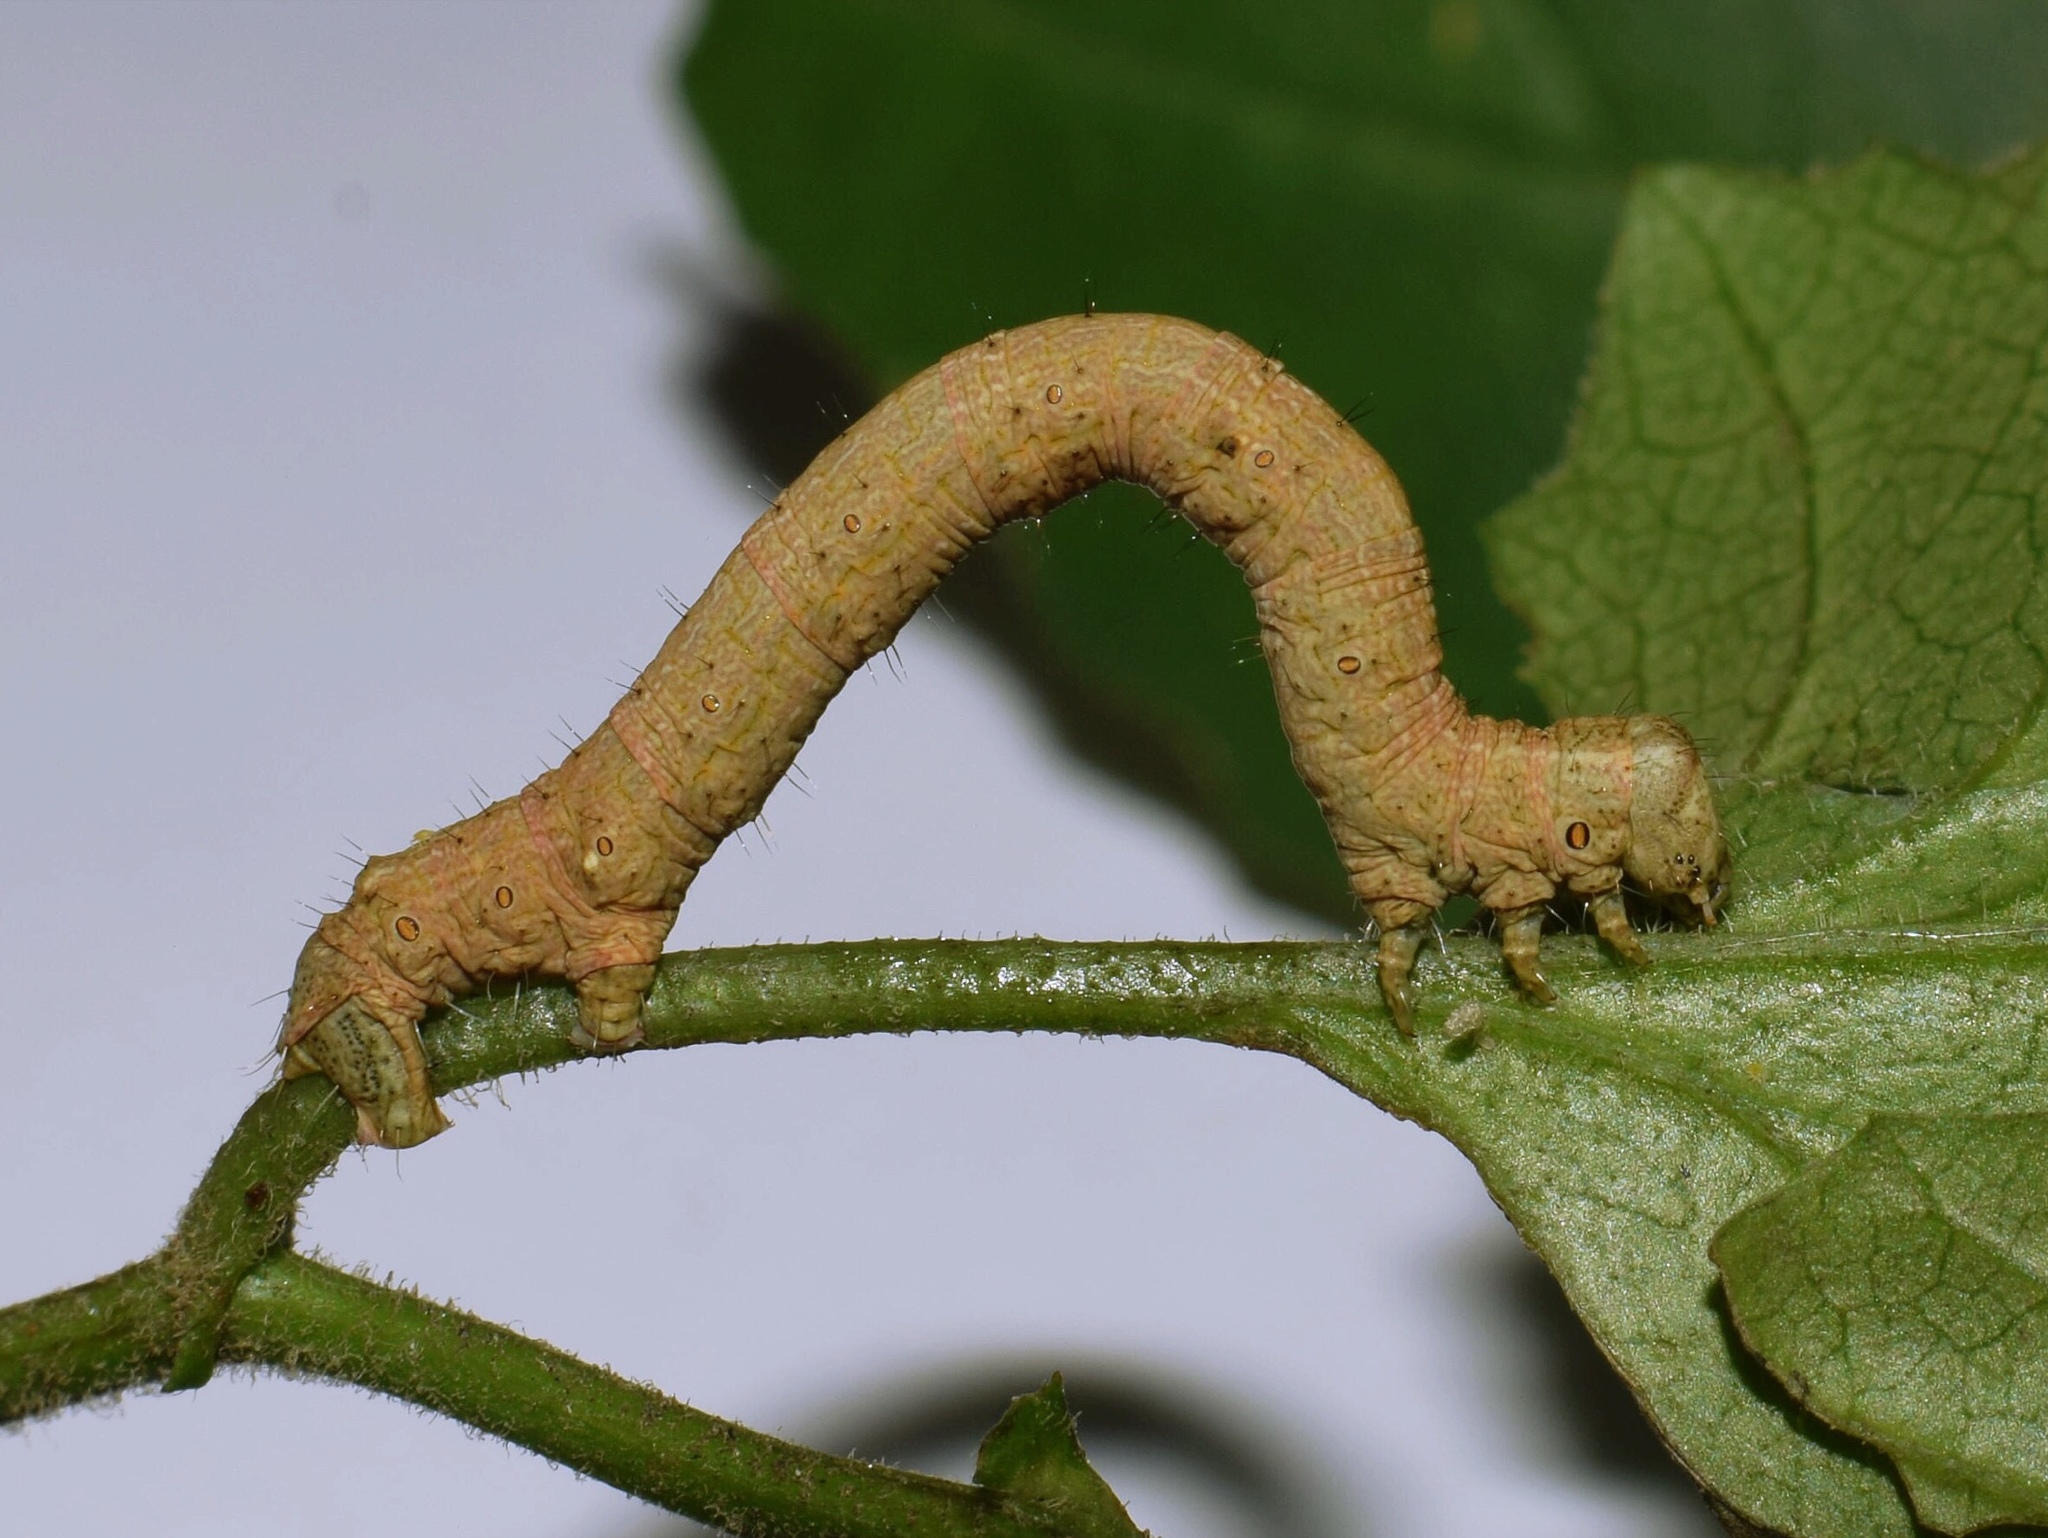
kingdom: Animalia
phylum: Arthropoda
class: Insecta
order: Lepidoptera
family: Geometridae
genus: Menophra
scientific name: Menophra serrataria
